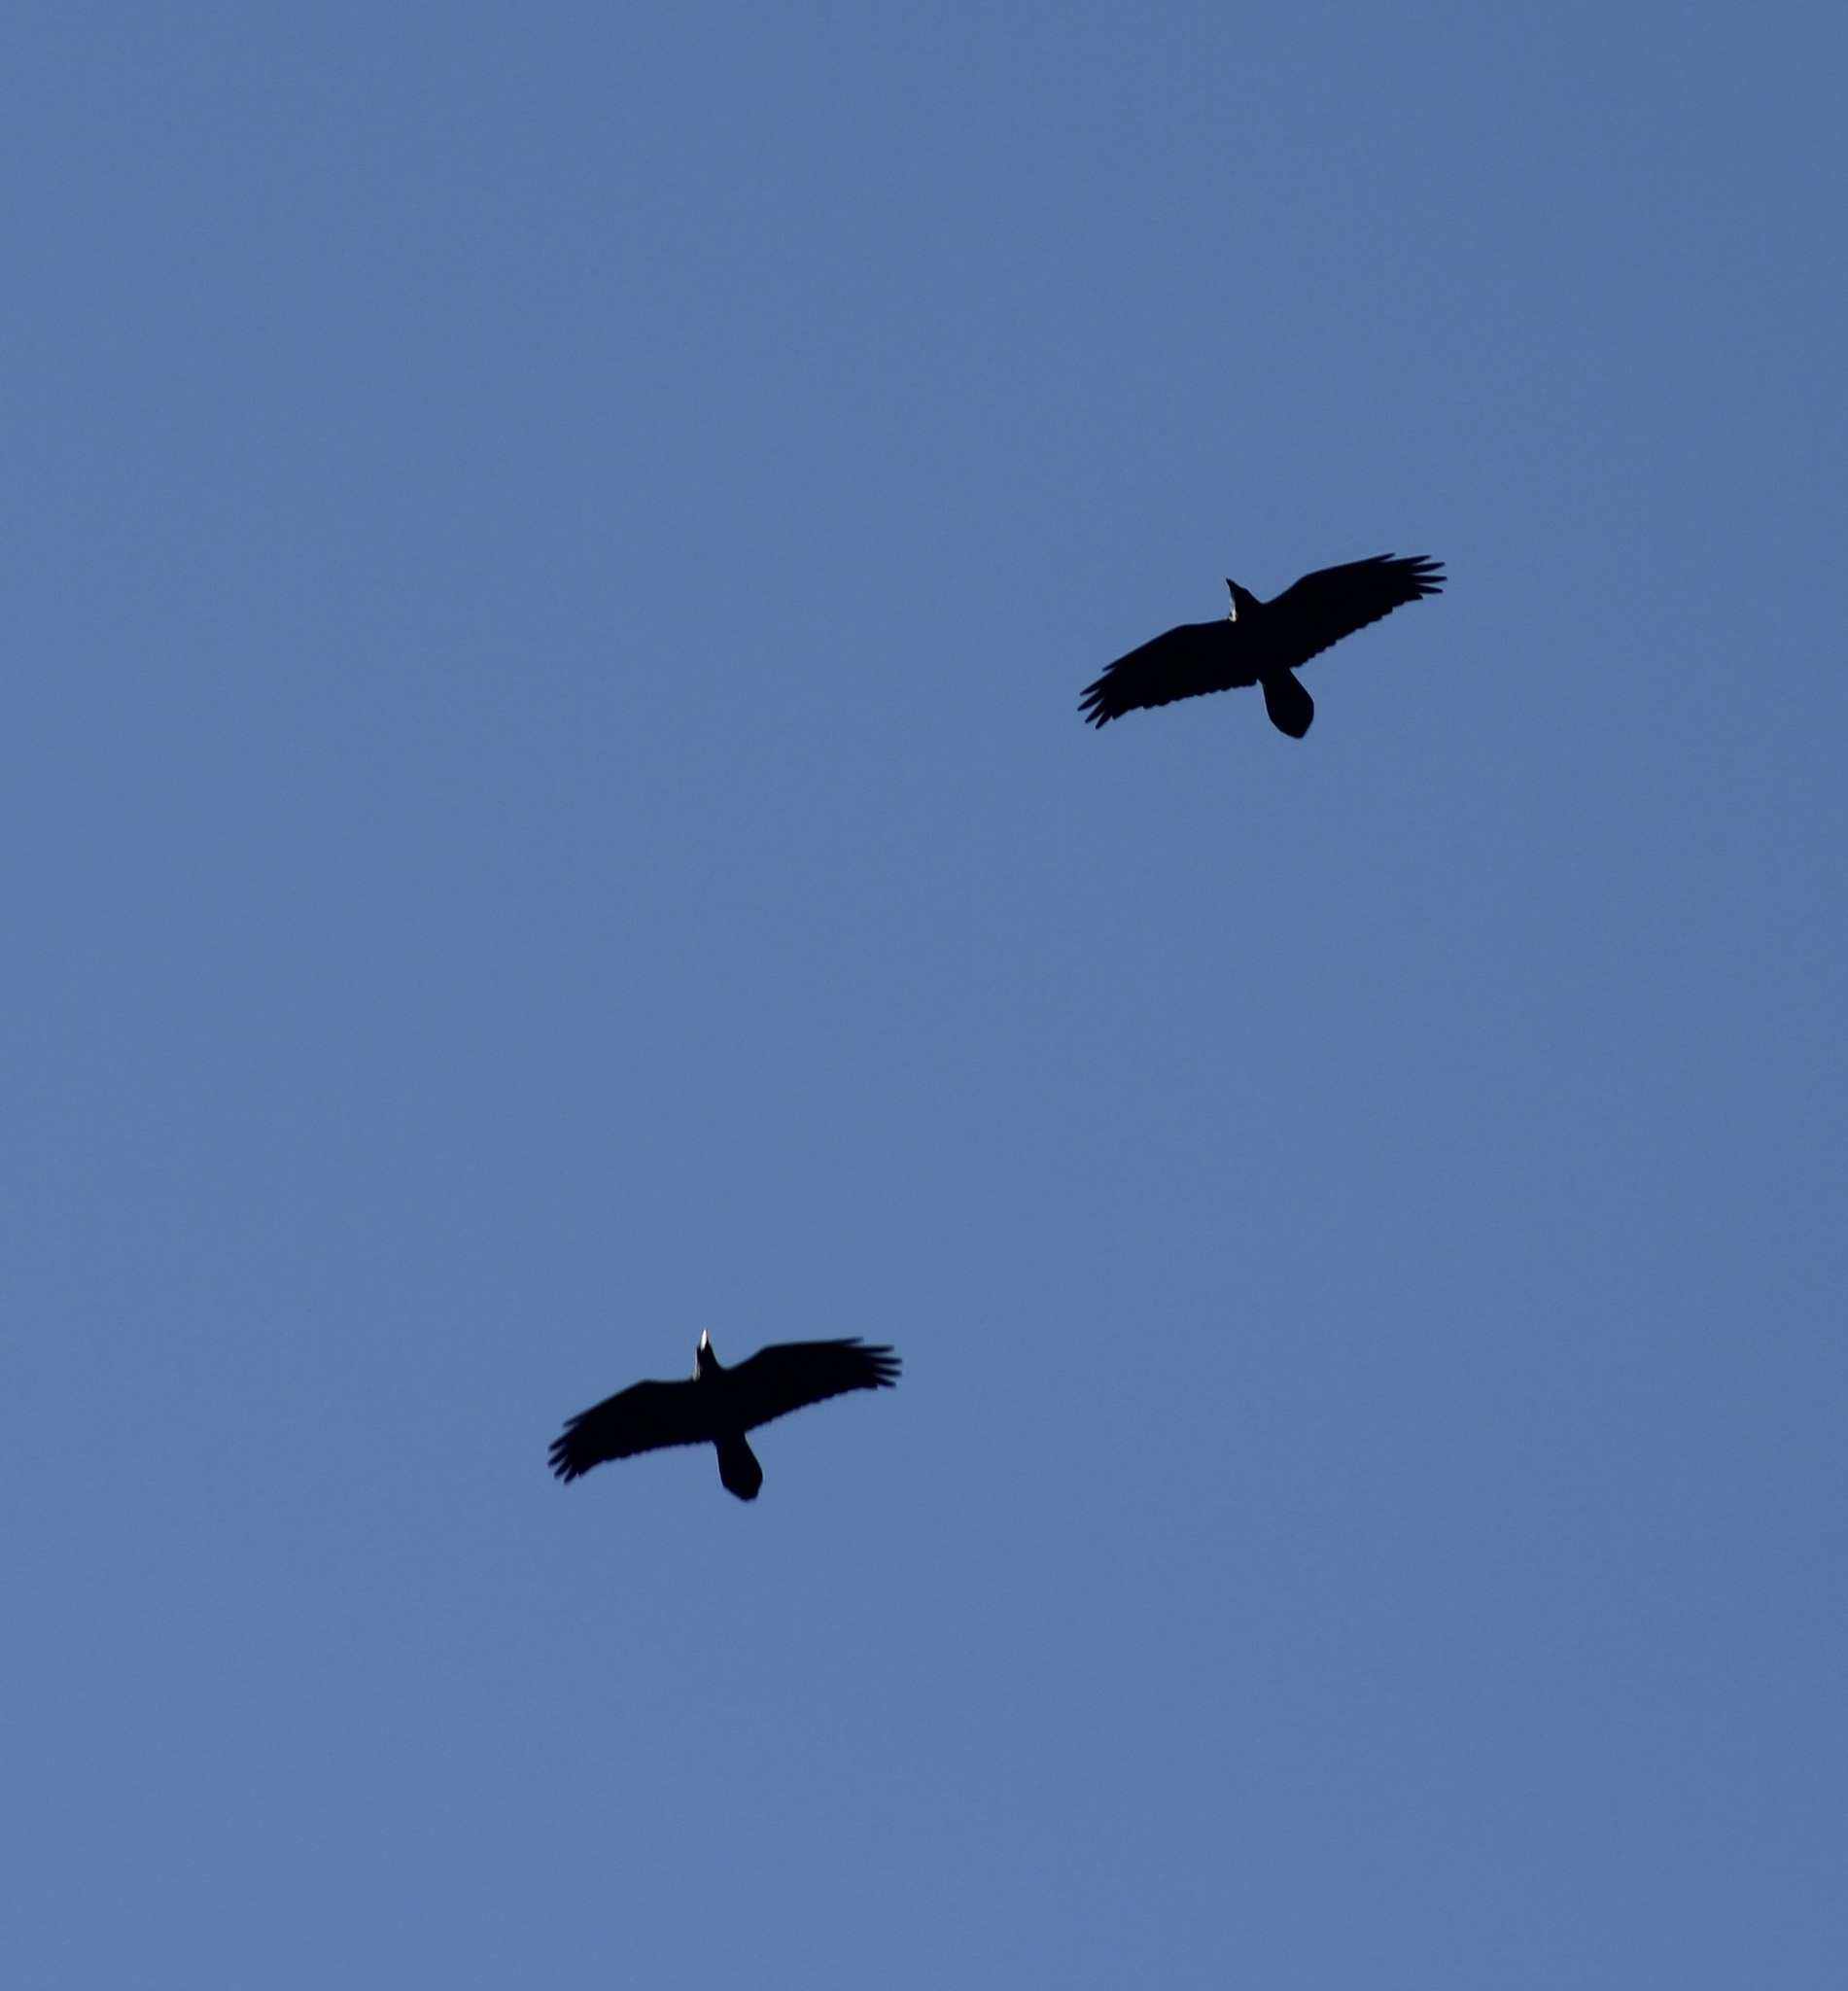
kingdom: Animalia
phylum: Chordata
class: Aves
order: Passeriformes
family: Corvidae
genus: Corvus
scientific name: Corvus corax
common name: Common raven
